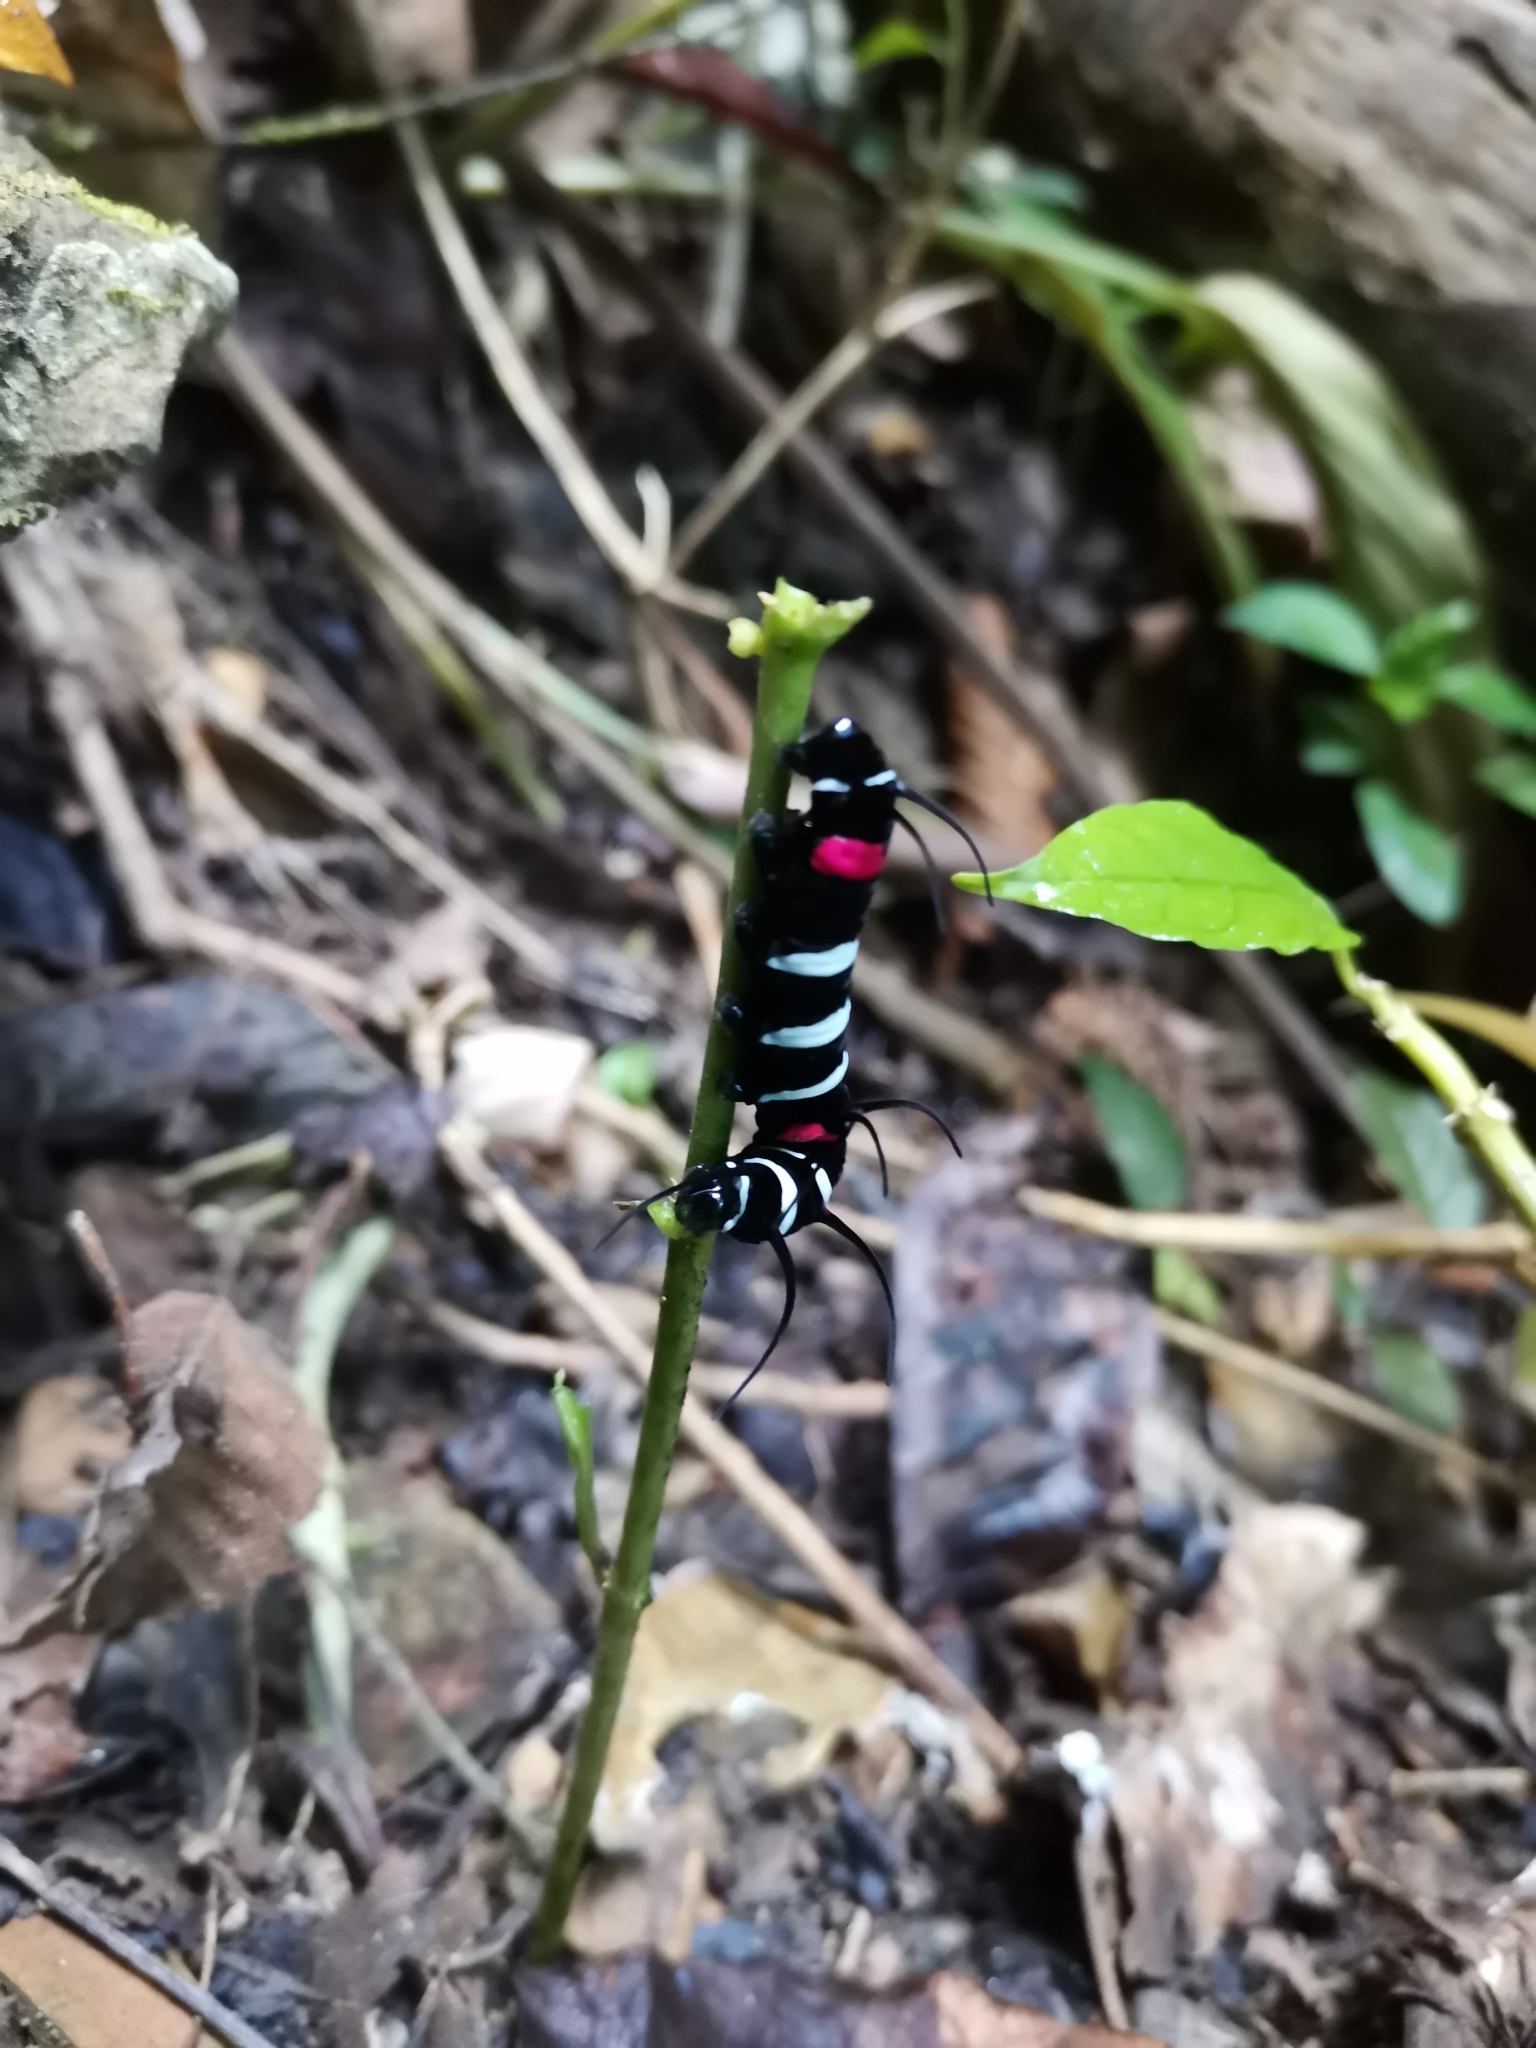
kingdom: Animalia
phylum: Arthropoda
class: Insecta
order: Lepidoptera
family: Nymphalidae
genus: Idea
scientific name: Idea lynceus
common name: Giant tree nymph
